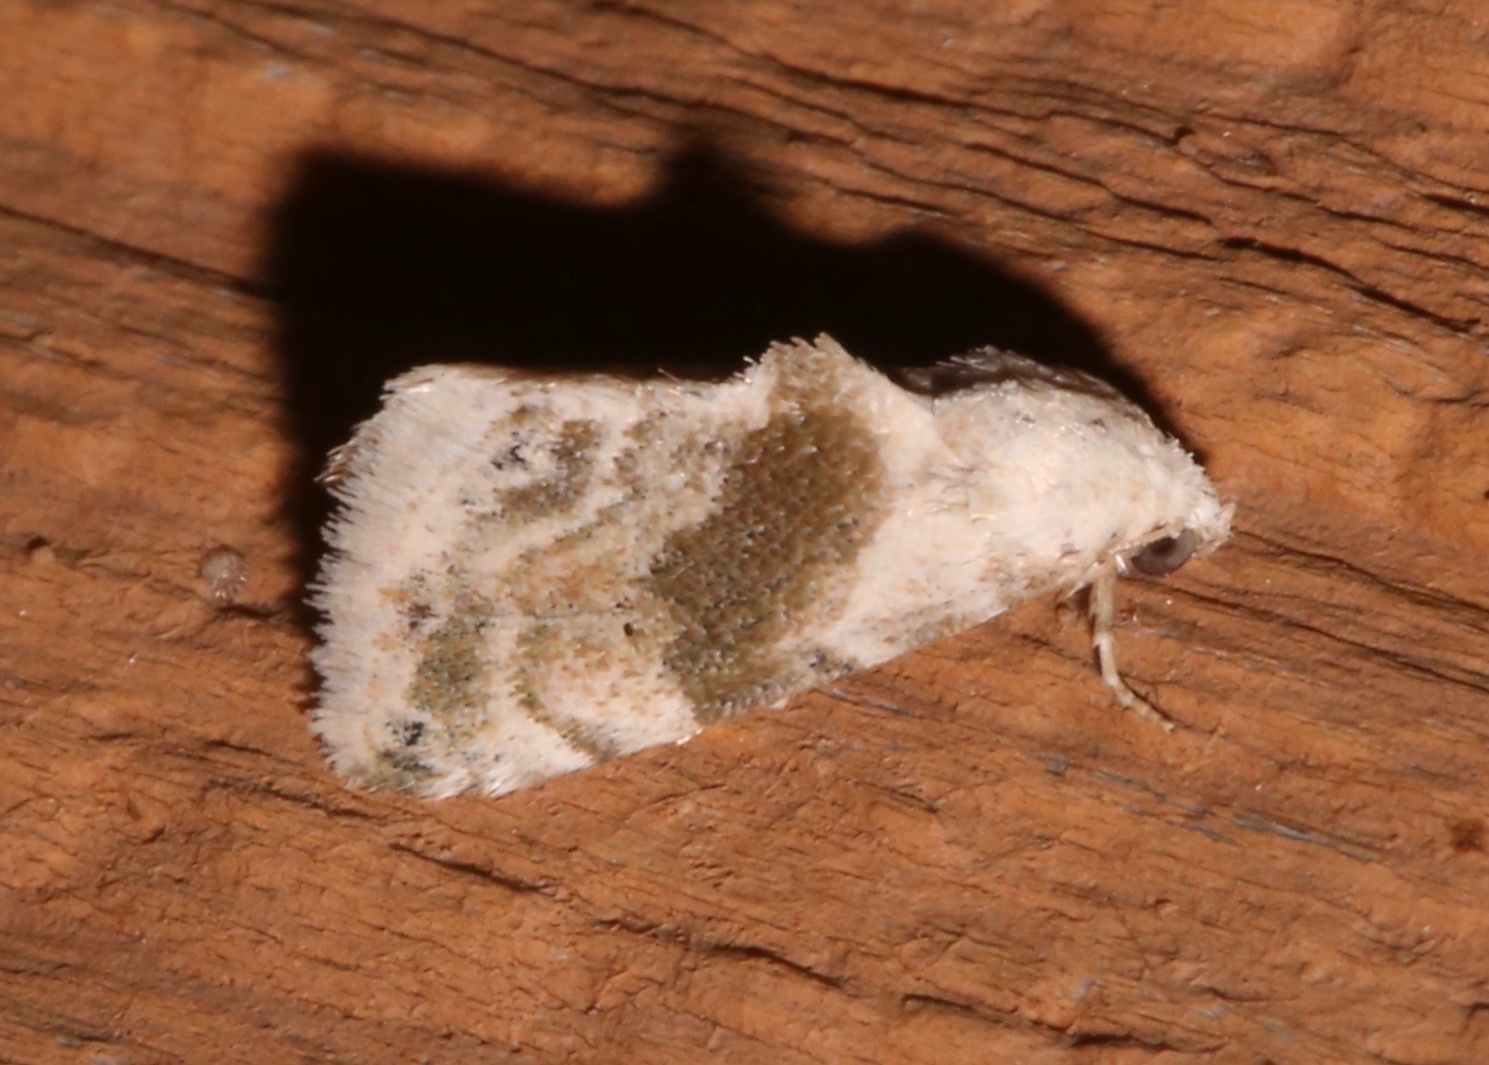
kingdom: Animalia
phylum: Arthropoda
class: Insecta
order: Lepidoptera
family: Noctuidae
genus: Eublemma
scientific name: Eublemma minima
